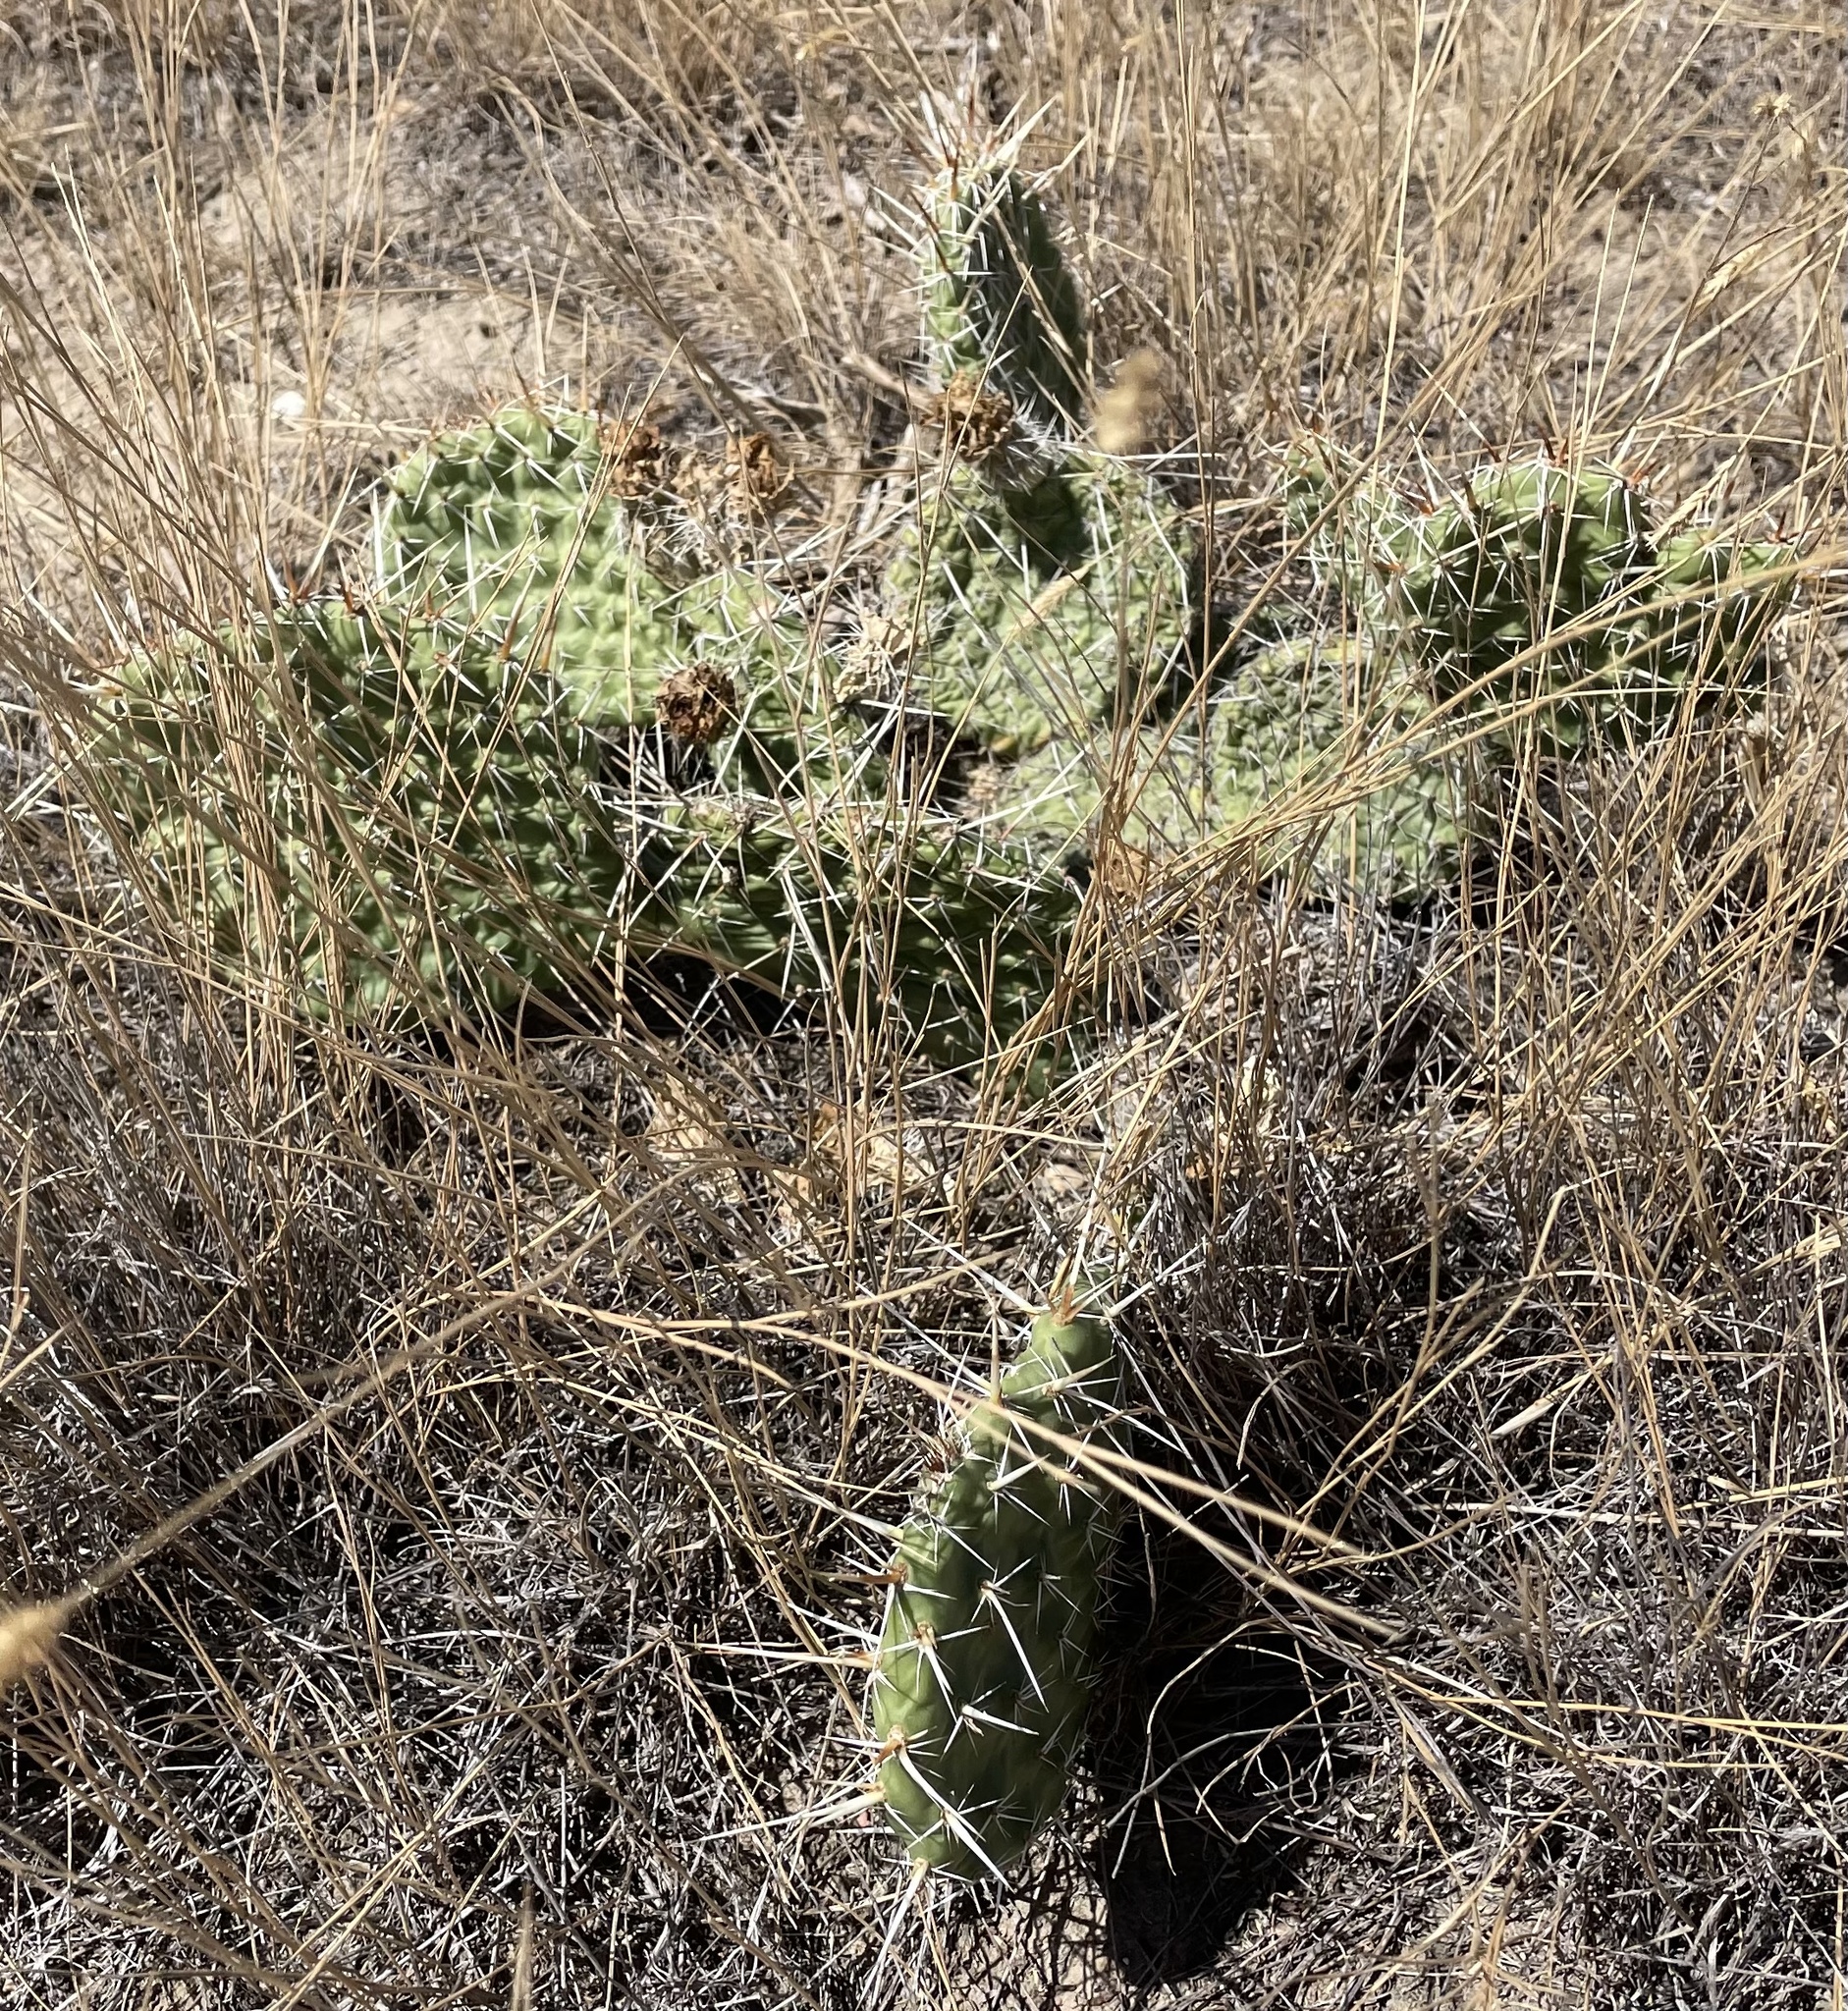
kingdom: Plantae
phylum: Tracheophyta
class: Magnoliopsida
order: Caryophyllales
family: Cactaceae
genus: Opuntia
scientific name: Opuntia polyacantha
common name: Plains prickly-pear
